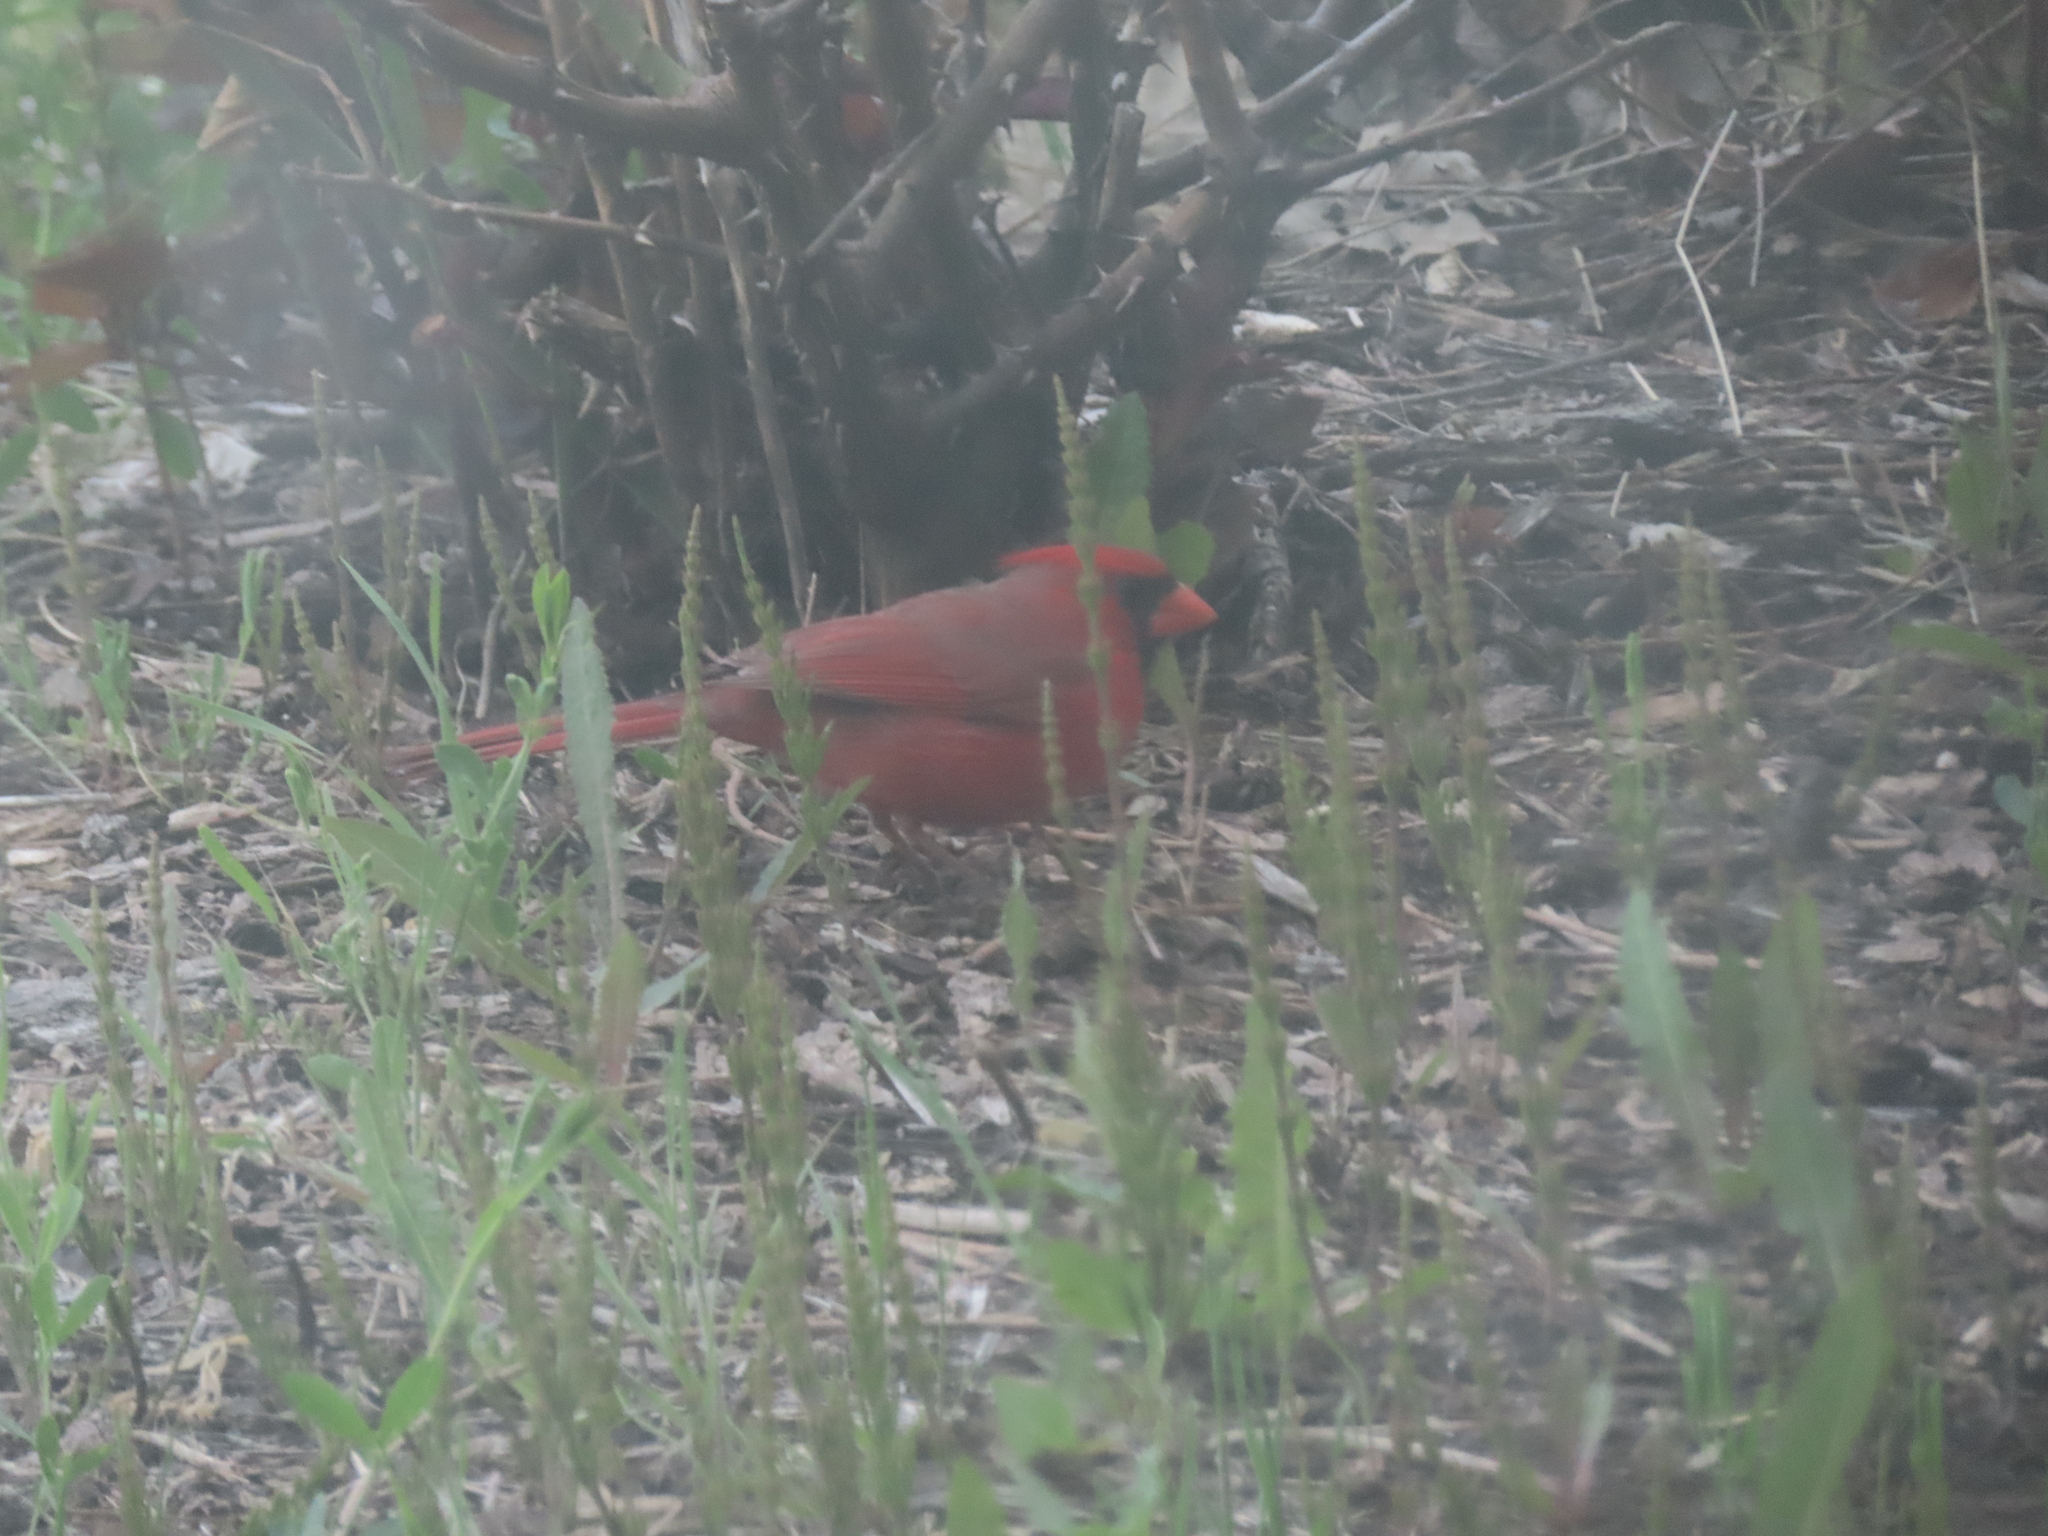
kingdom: Animalia
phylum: Chordata
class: Aves
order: Passeriformes
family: Cardinalidae
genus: Cardinalis
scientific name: Cardinalis cardinalis
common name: Northern cardinal
